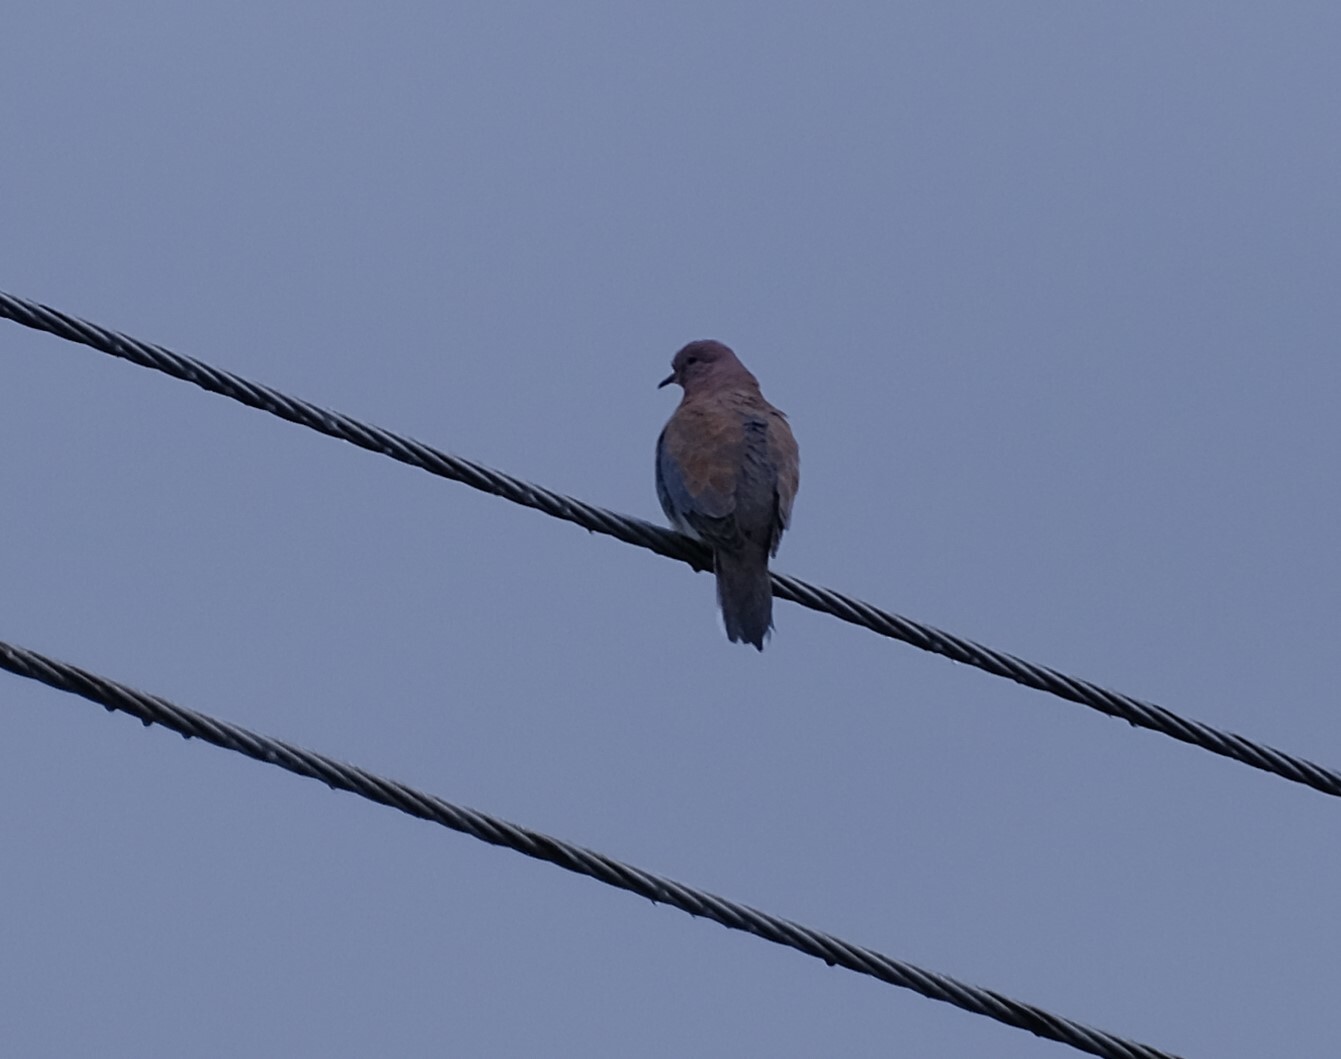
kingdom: Animalia
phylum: Chordata
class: Aves
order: Columbiformes
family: Columbidae
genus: Spilopelia
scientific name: Spilopelia senegalensis
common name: Laughing dove
